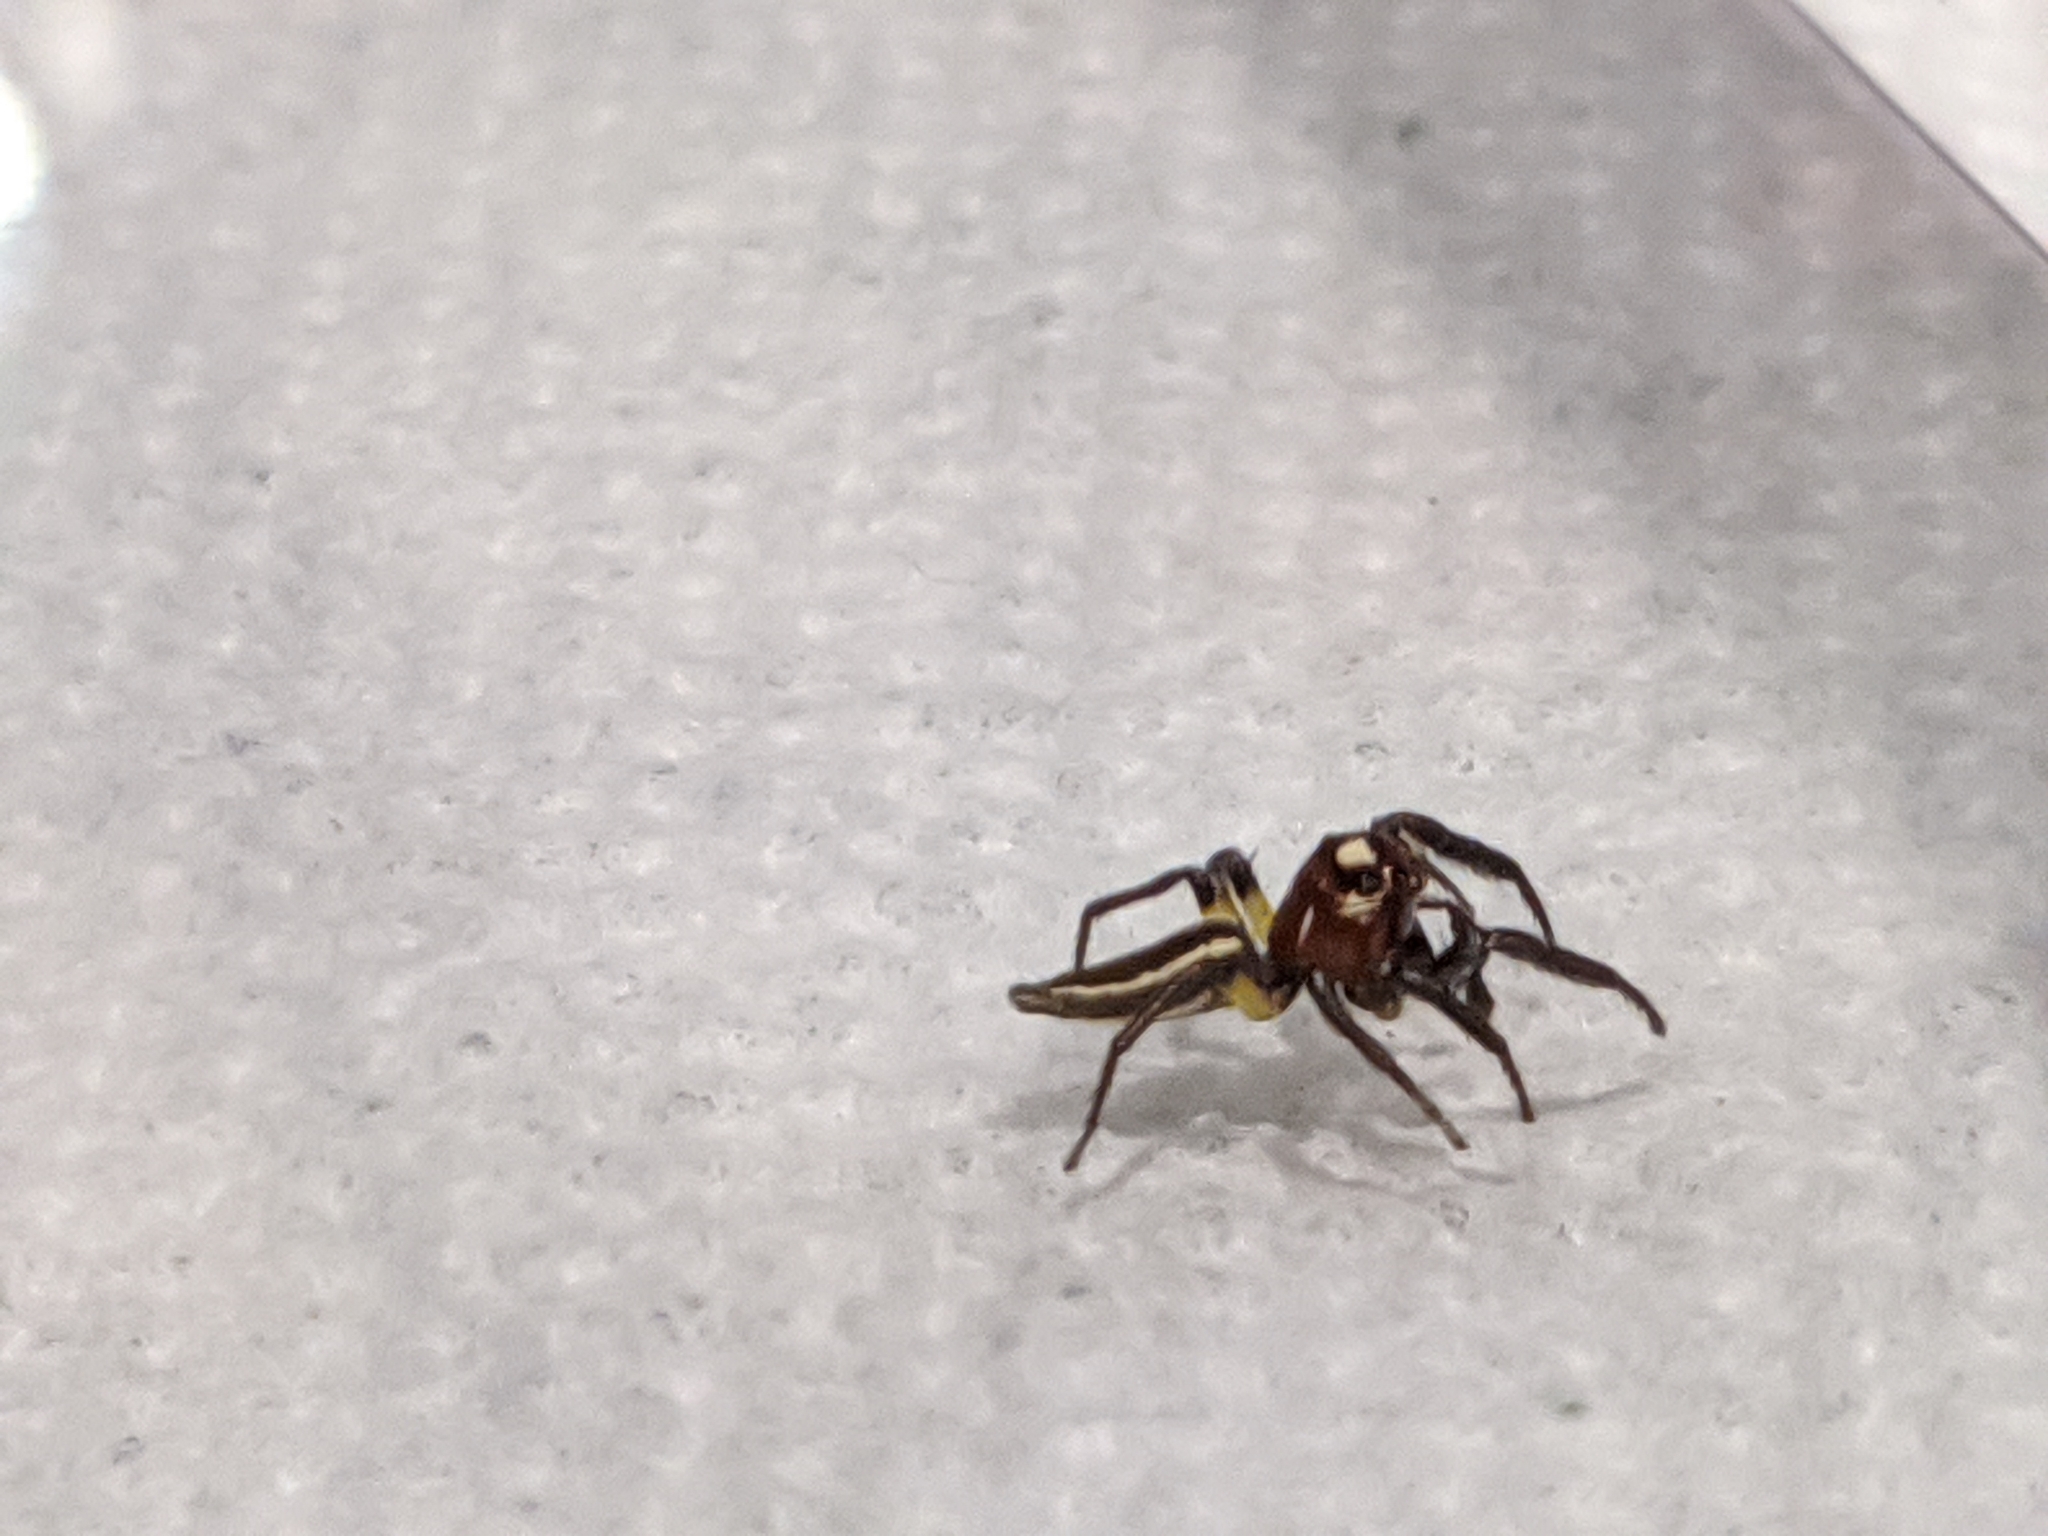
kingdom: Animalia
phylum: Arthropoda
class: Arachnida
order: Araneae
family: Salticidae
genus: Colonus
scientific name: Colonus sylvanus
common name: Jumping spiders
